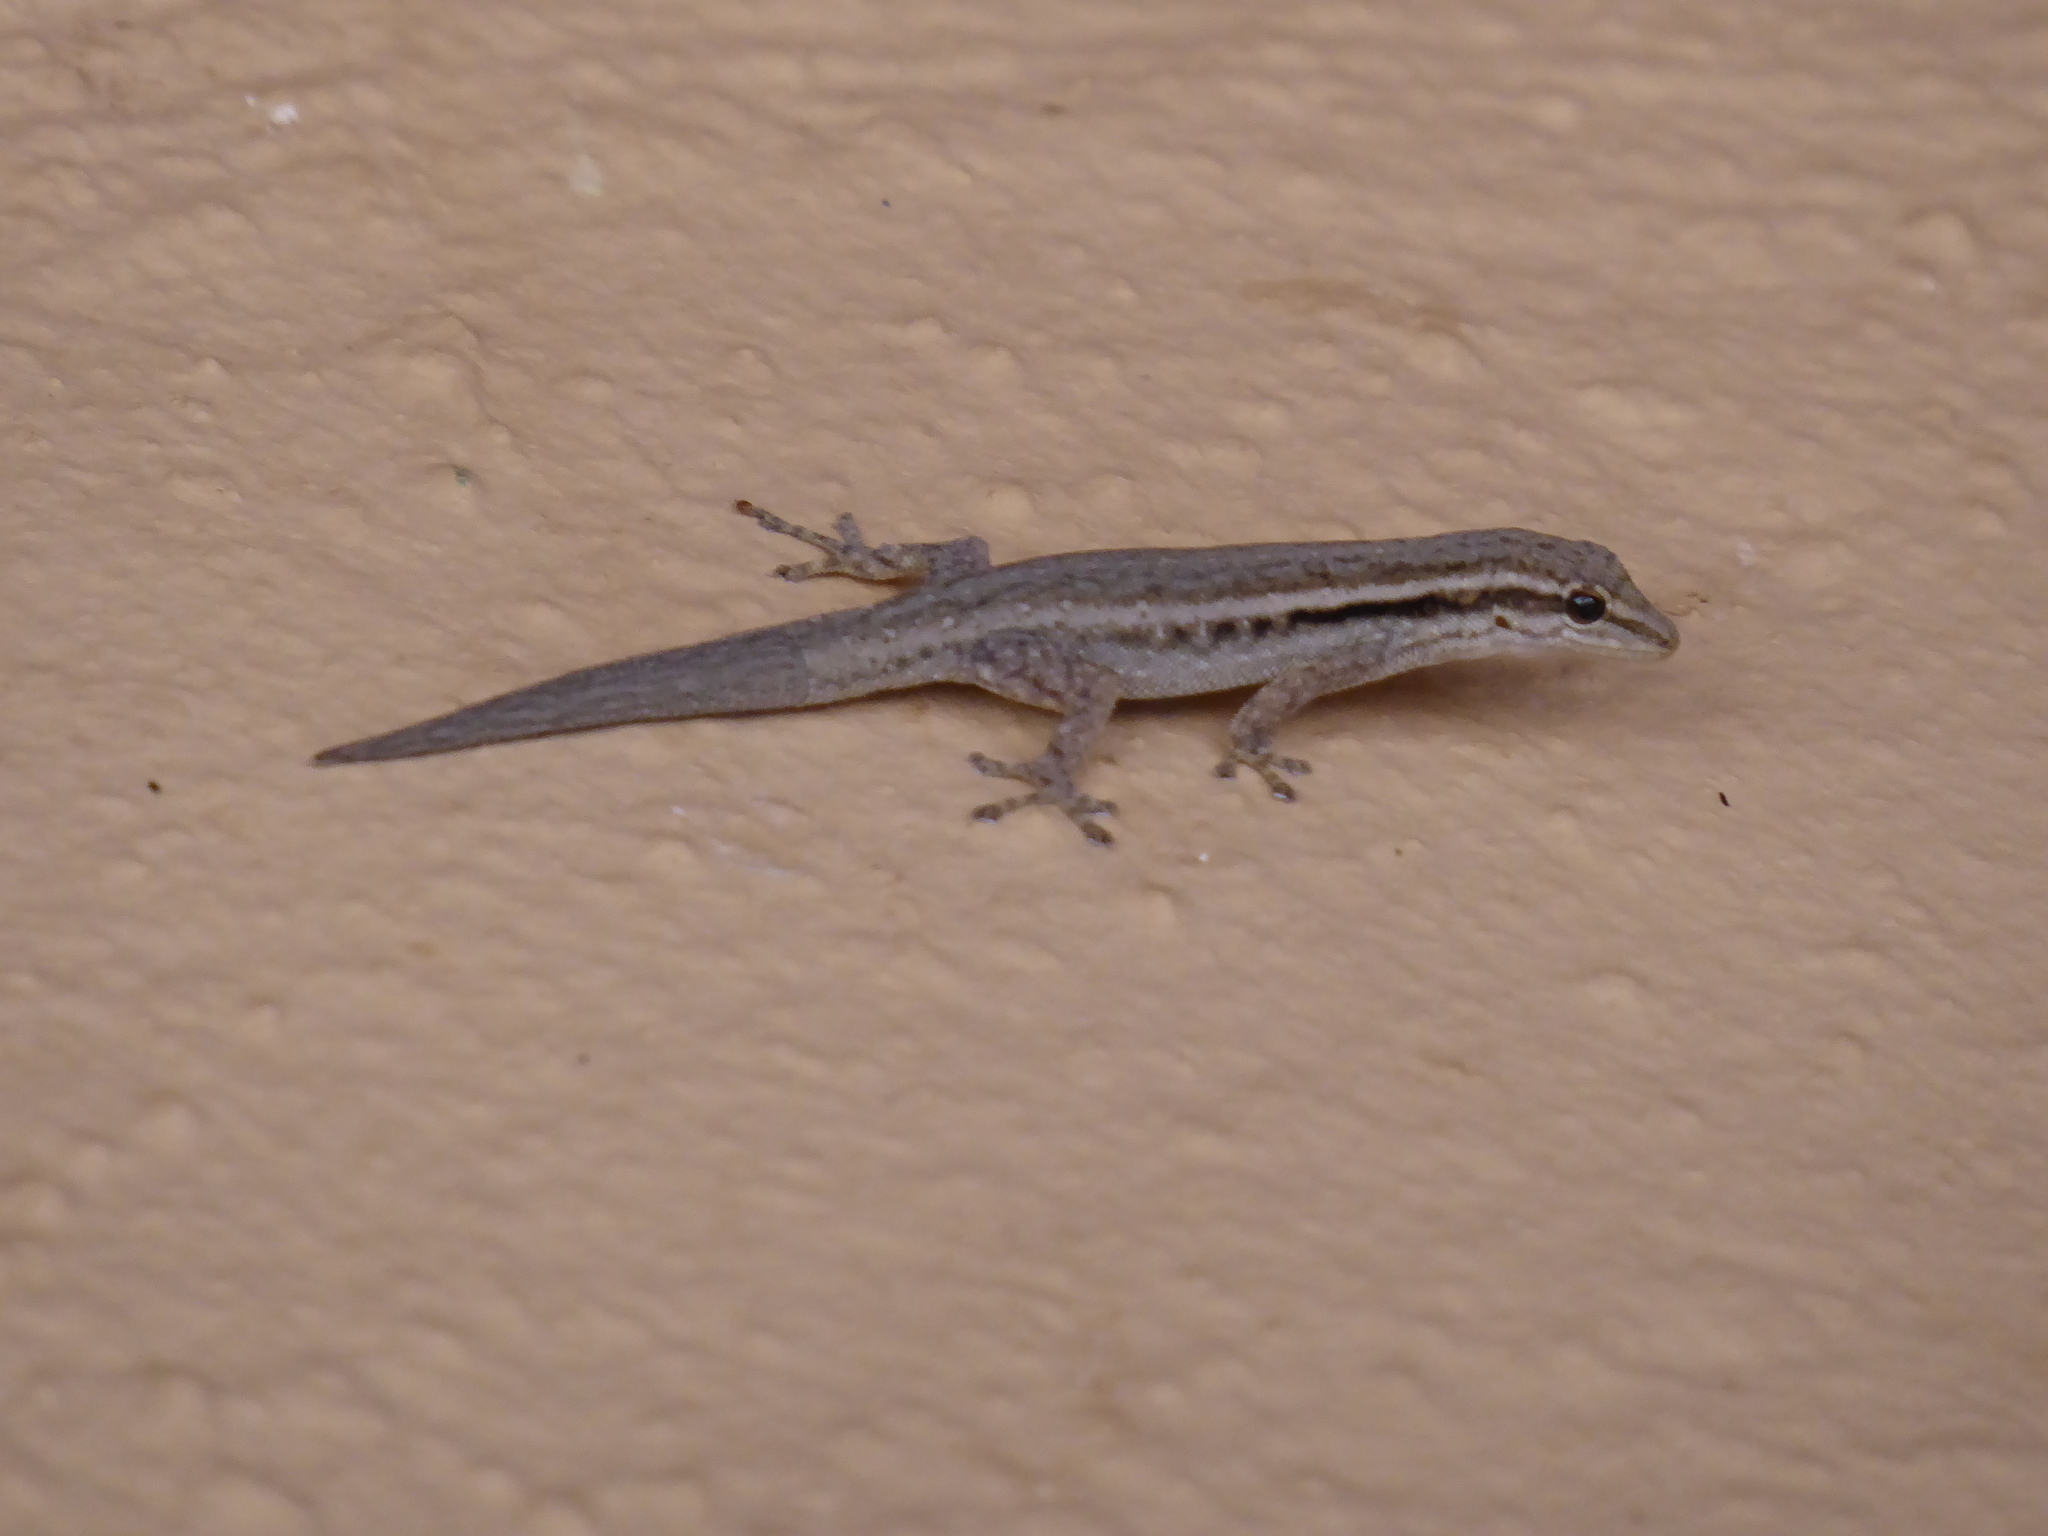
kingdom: Animalia
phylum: Chordata
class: Squamata
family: Gekkonidae
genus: Lygodactylus
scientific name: Lygodactylus capensis
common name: Cape dwarf gecko
